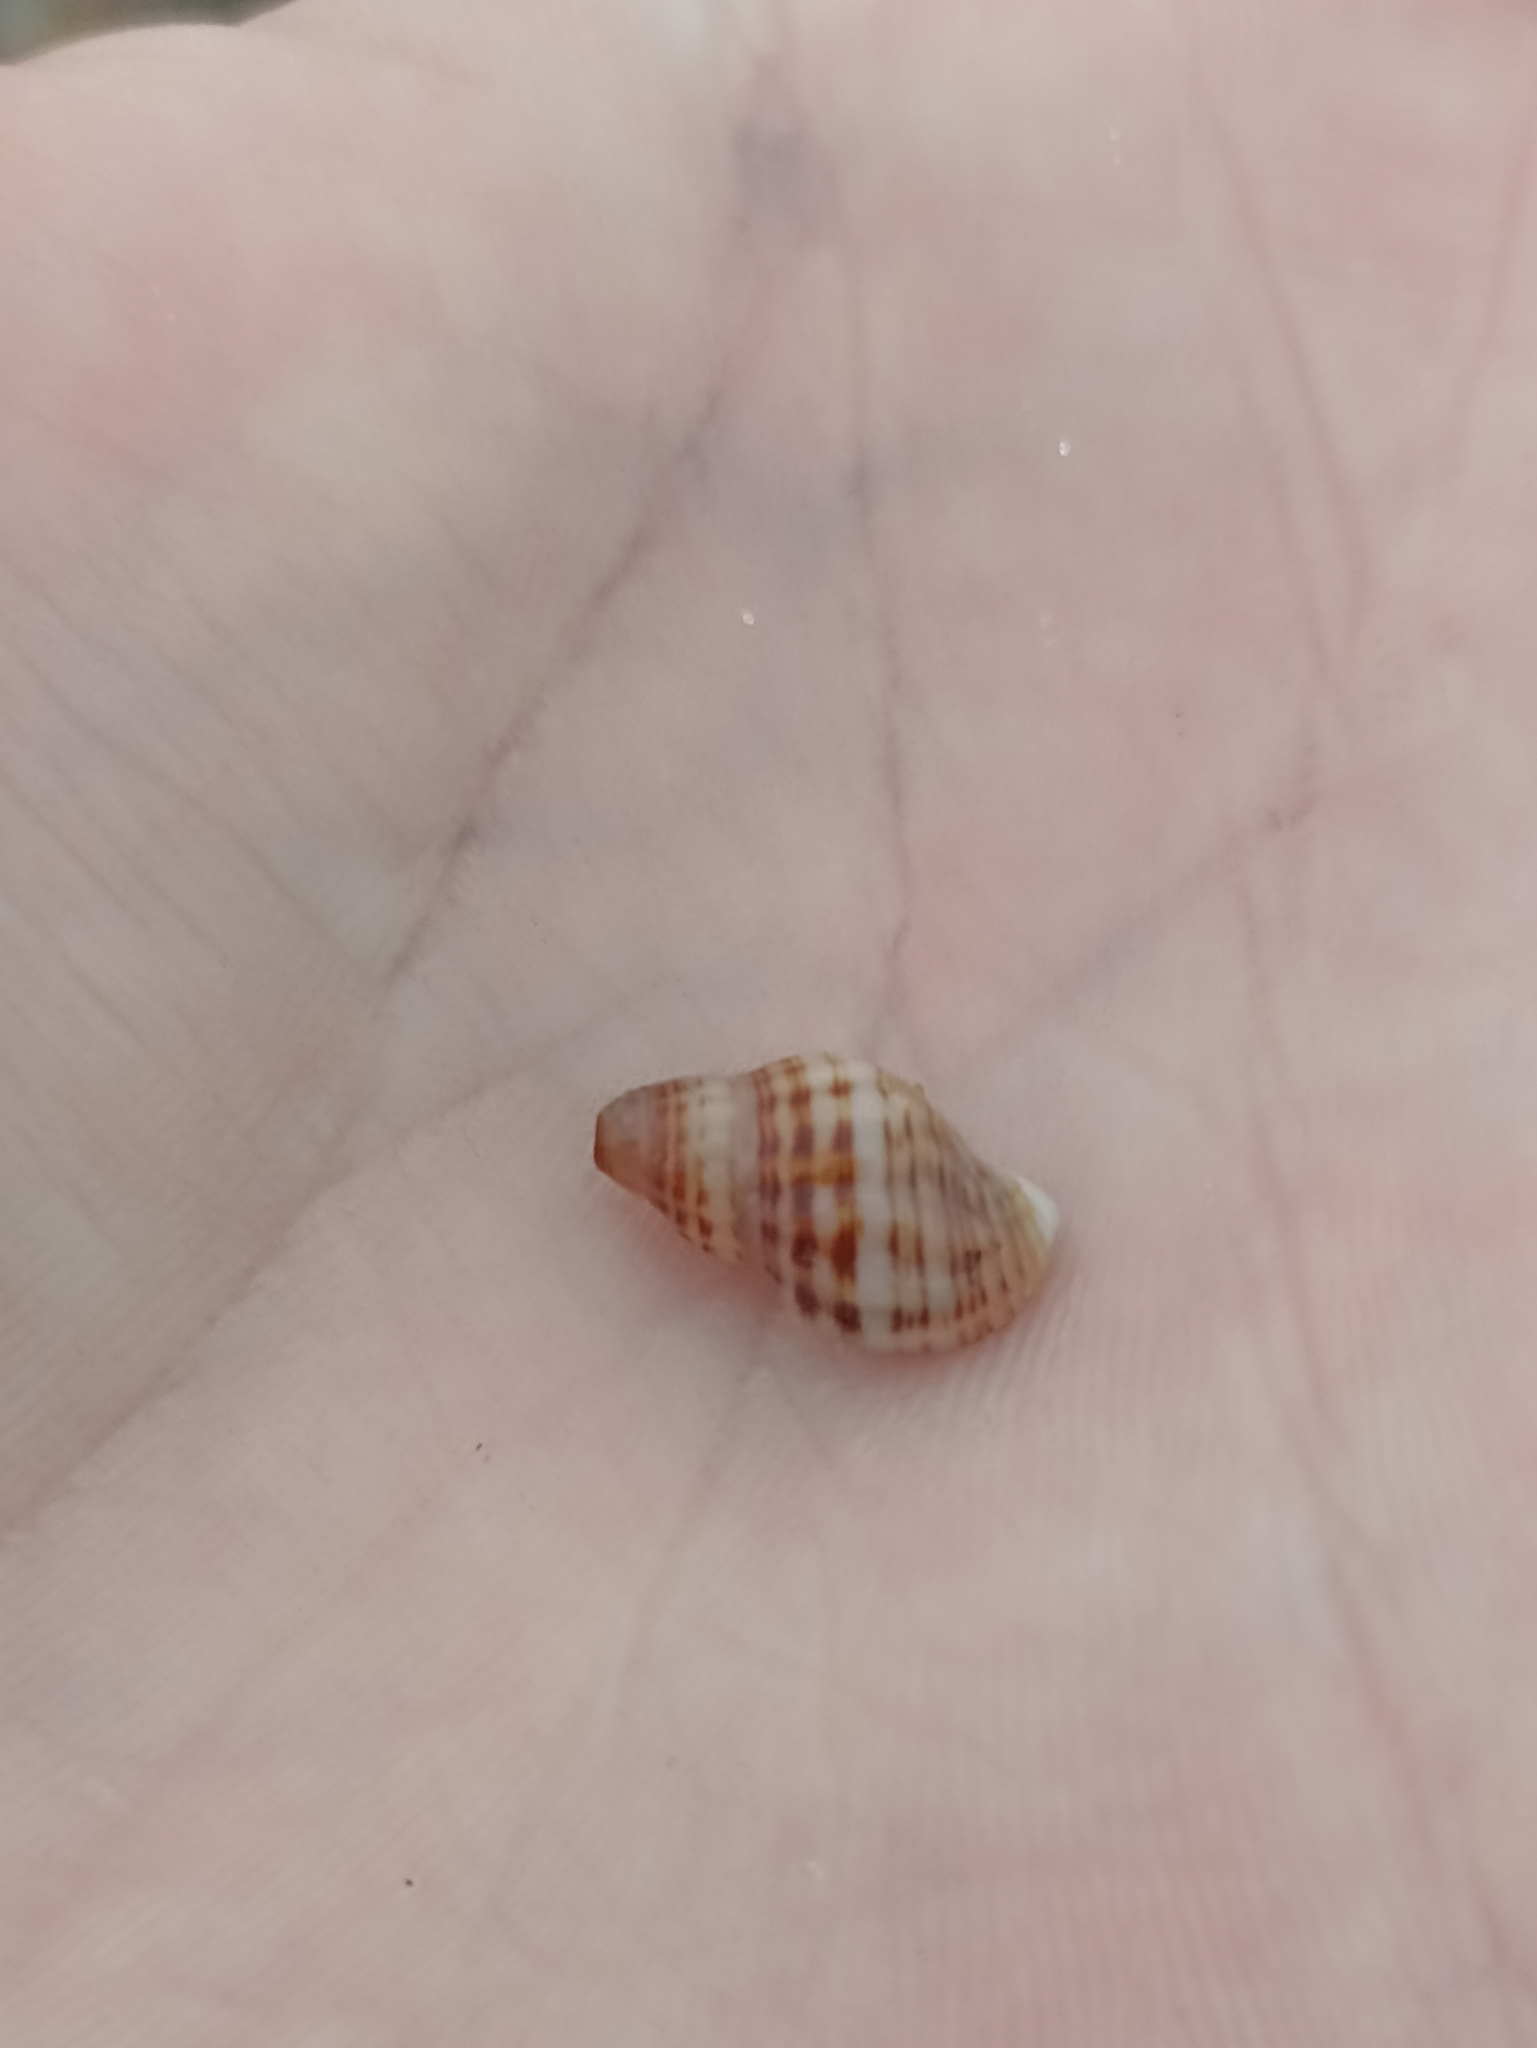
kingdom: Animalia
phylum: Mollusca
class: Gastropoda
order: Neogastropoda
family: Muricidae
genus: Agnewia
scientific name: Agnewia tritoniformis
